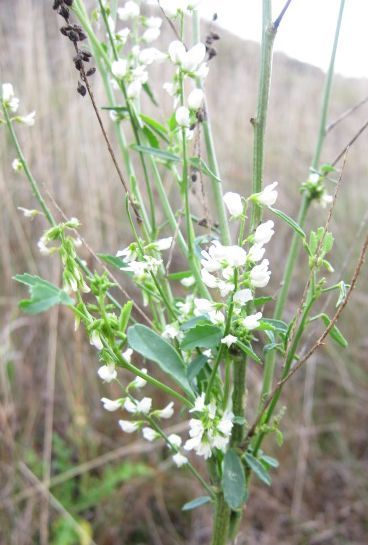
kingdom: Plantae
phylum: Tracheophyta
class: Magnoliopsida
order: Fabales
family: Fabaceae
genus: Melilotus
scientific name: Melilotus albus
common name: White melilot
